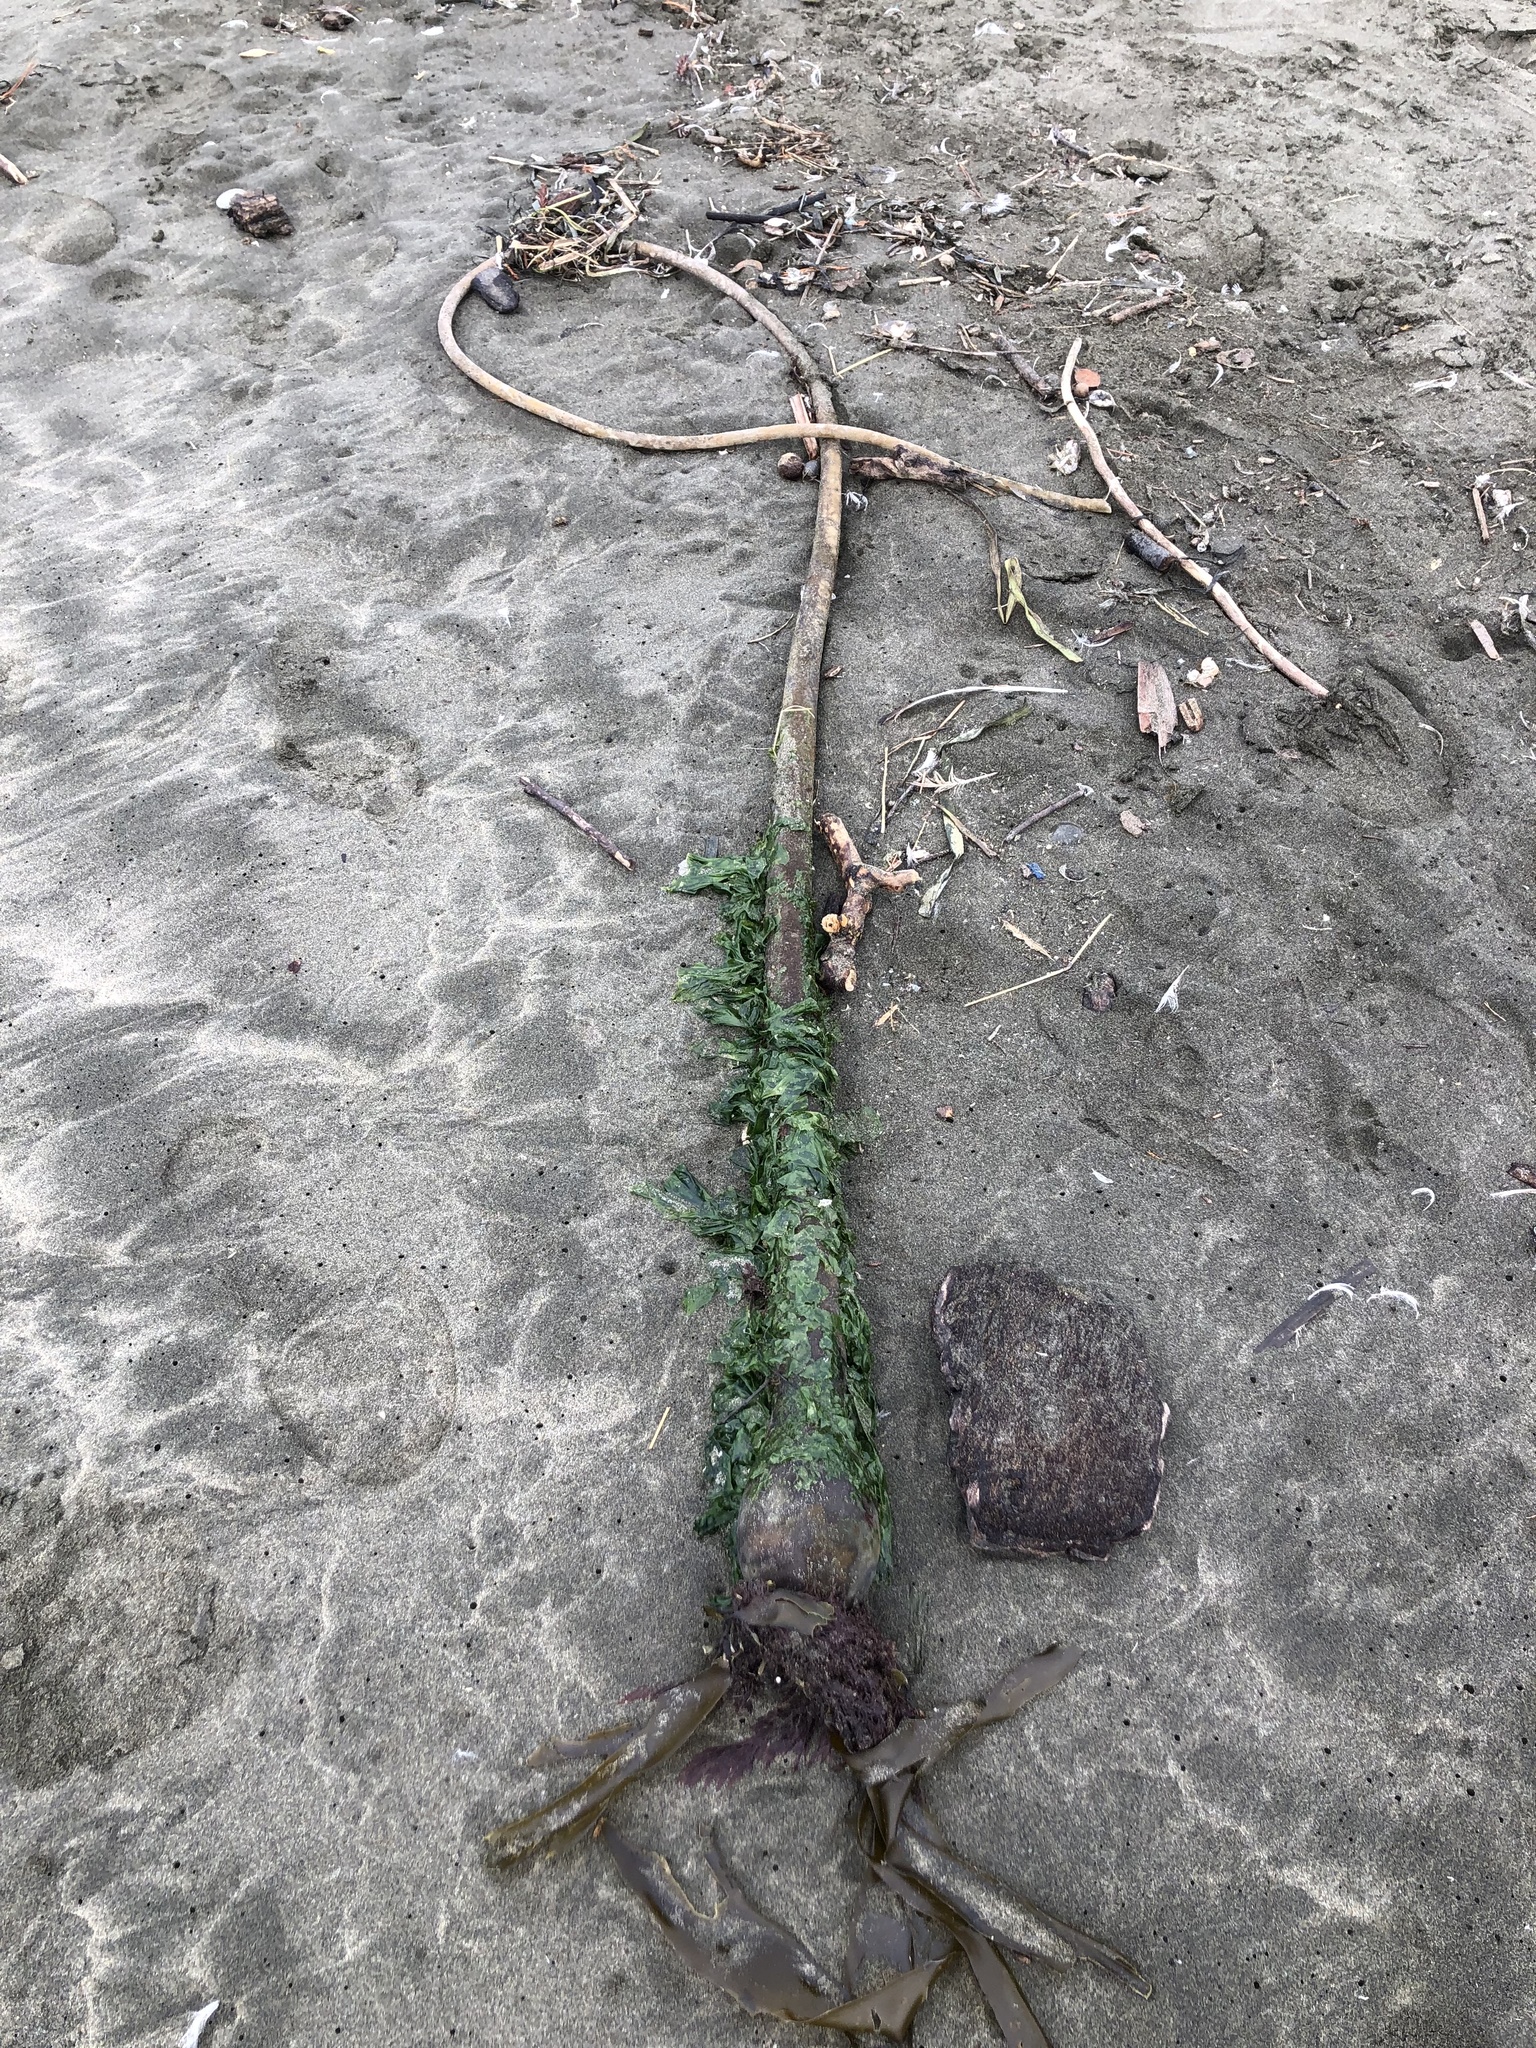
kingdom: Chromista
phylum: Ochrophyta
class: Phaeophyceae
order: Laminariales
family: Laminariaceae
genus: Nereocystis
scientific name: Nereocystis luetkeana
